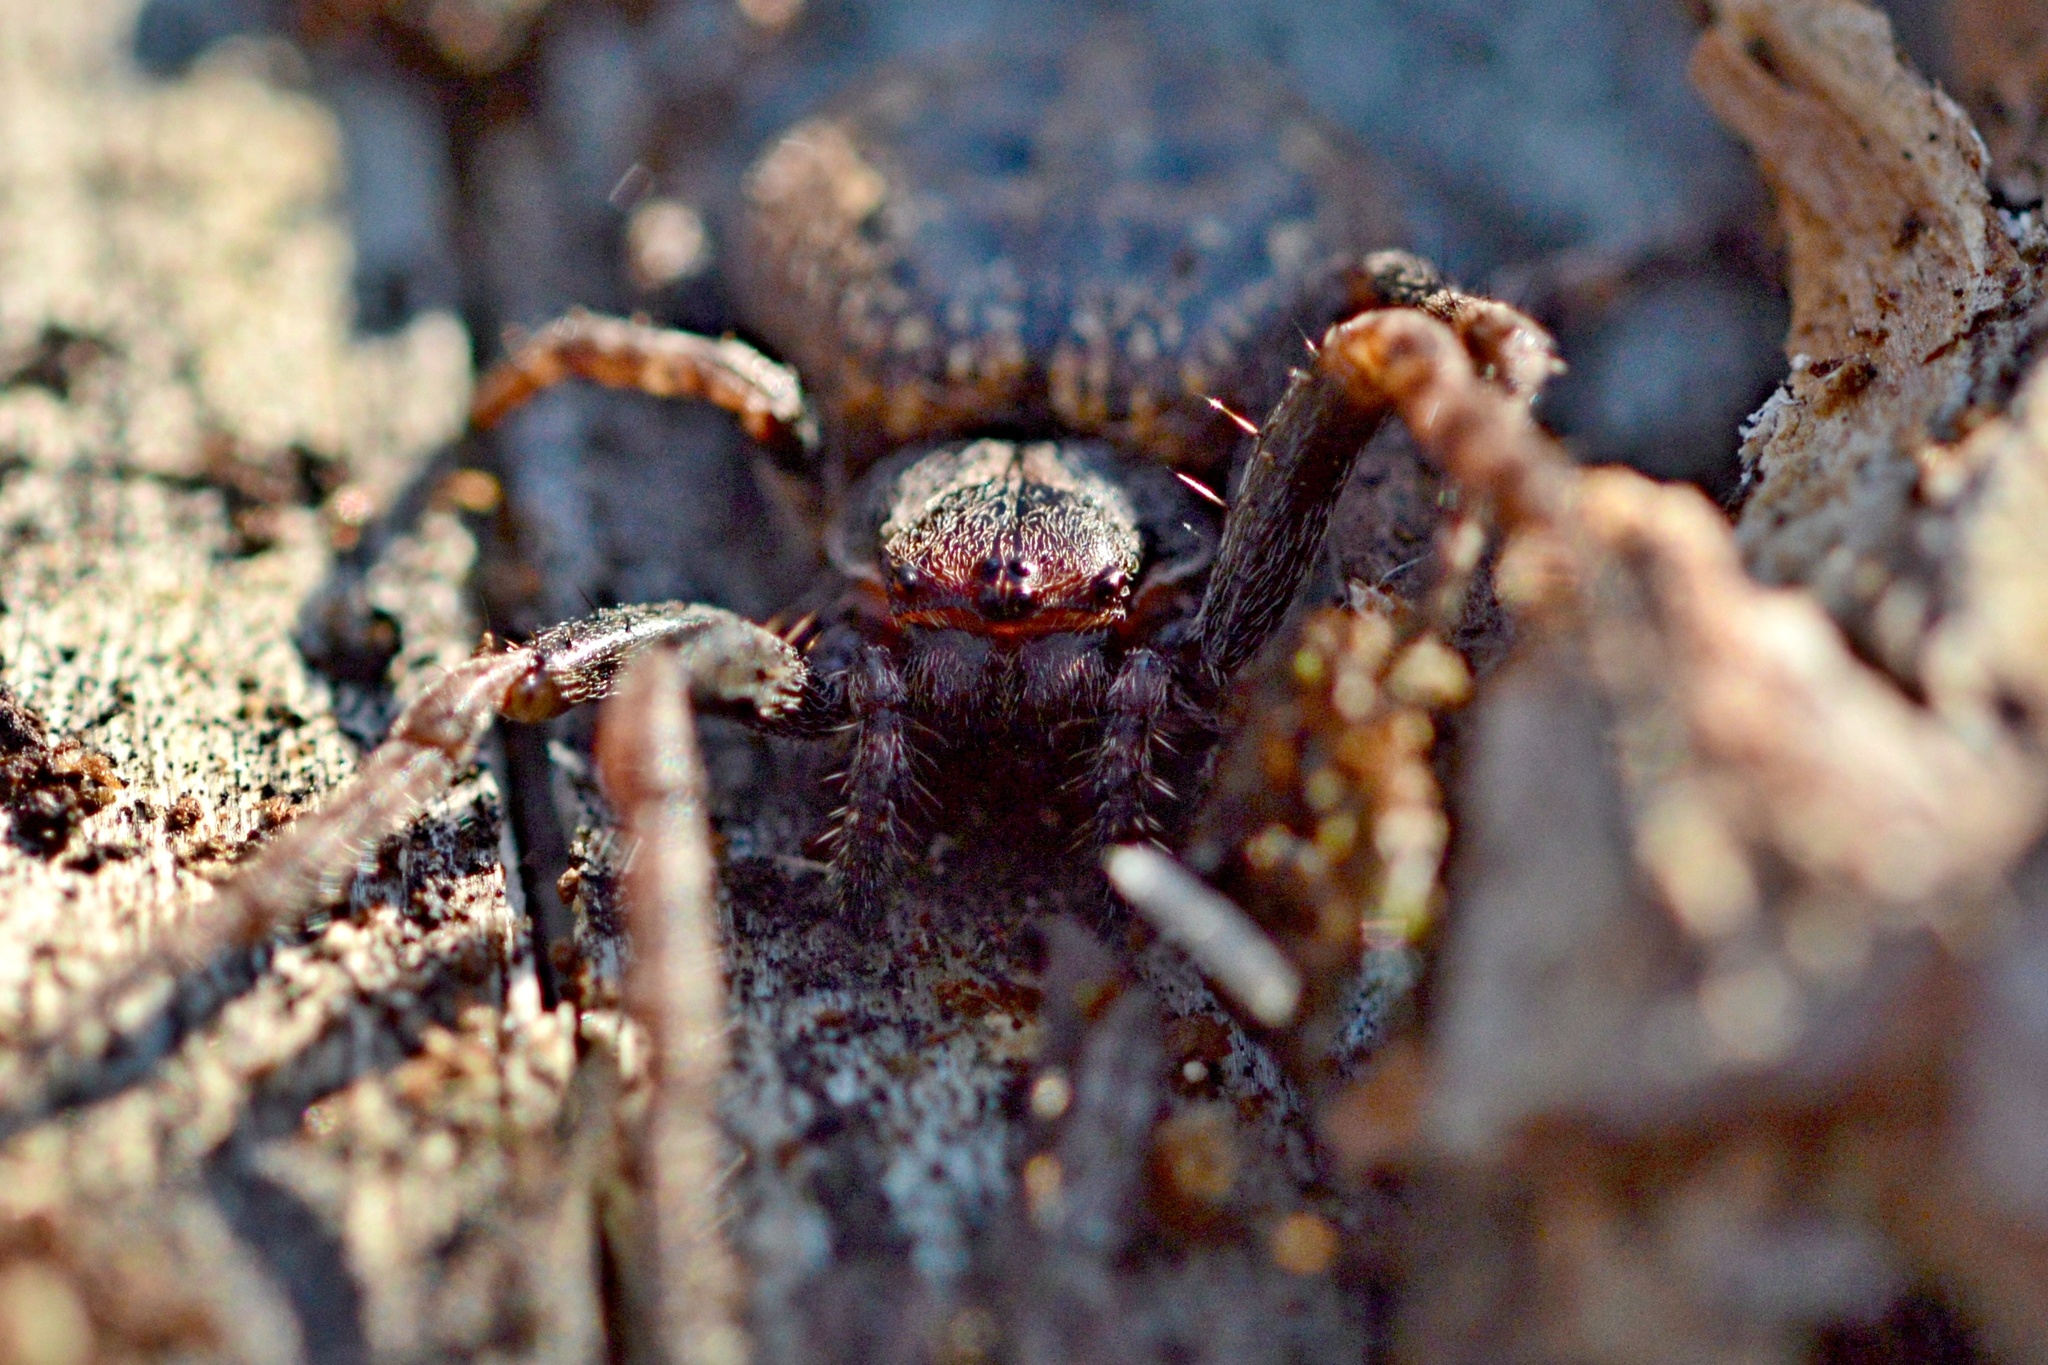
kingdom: Animalia
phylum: Arthropoda
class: Arachnida
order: Araneae
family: Araneidae
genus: Nuctenea
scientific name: Nuctenea umbratica
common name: Toad spider
